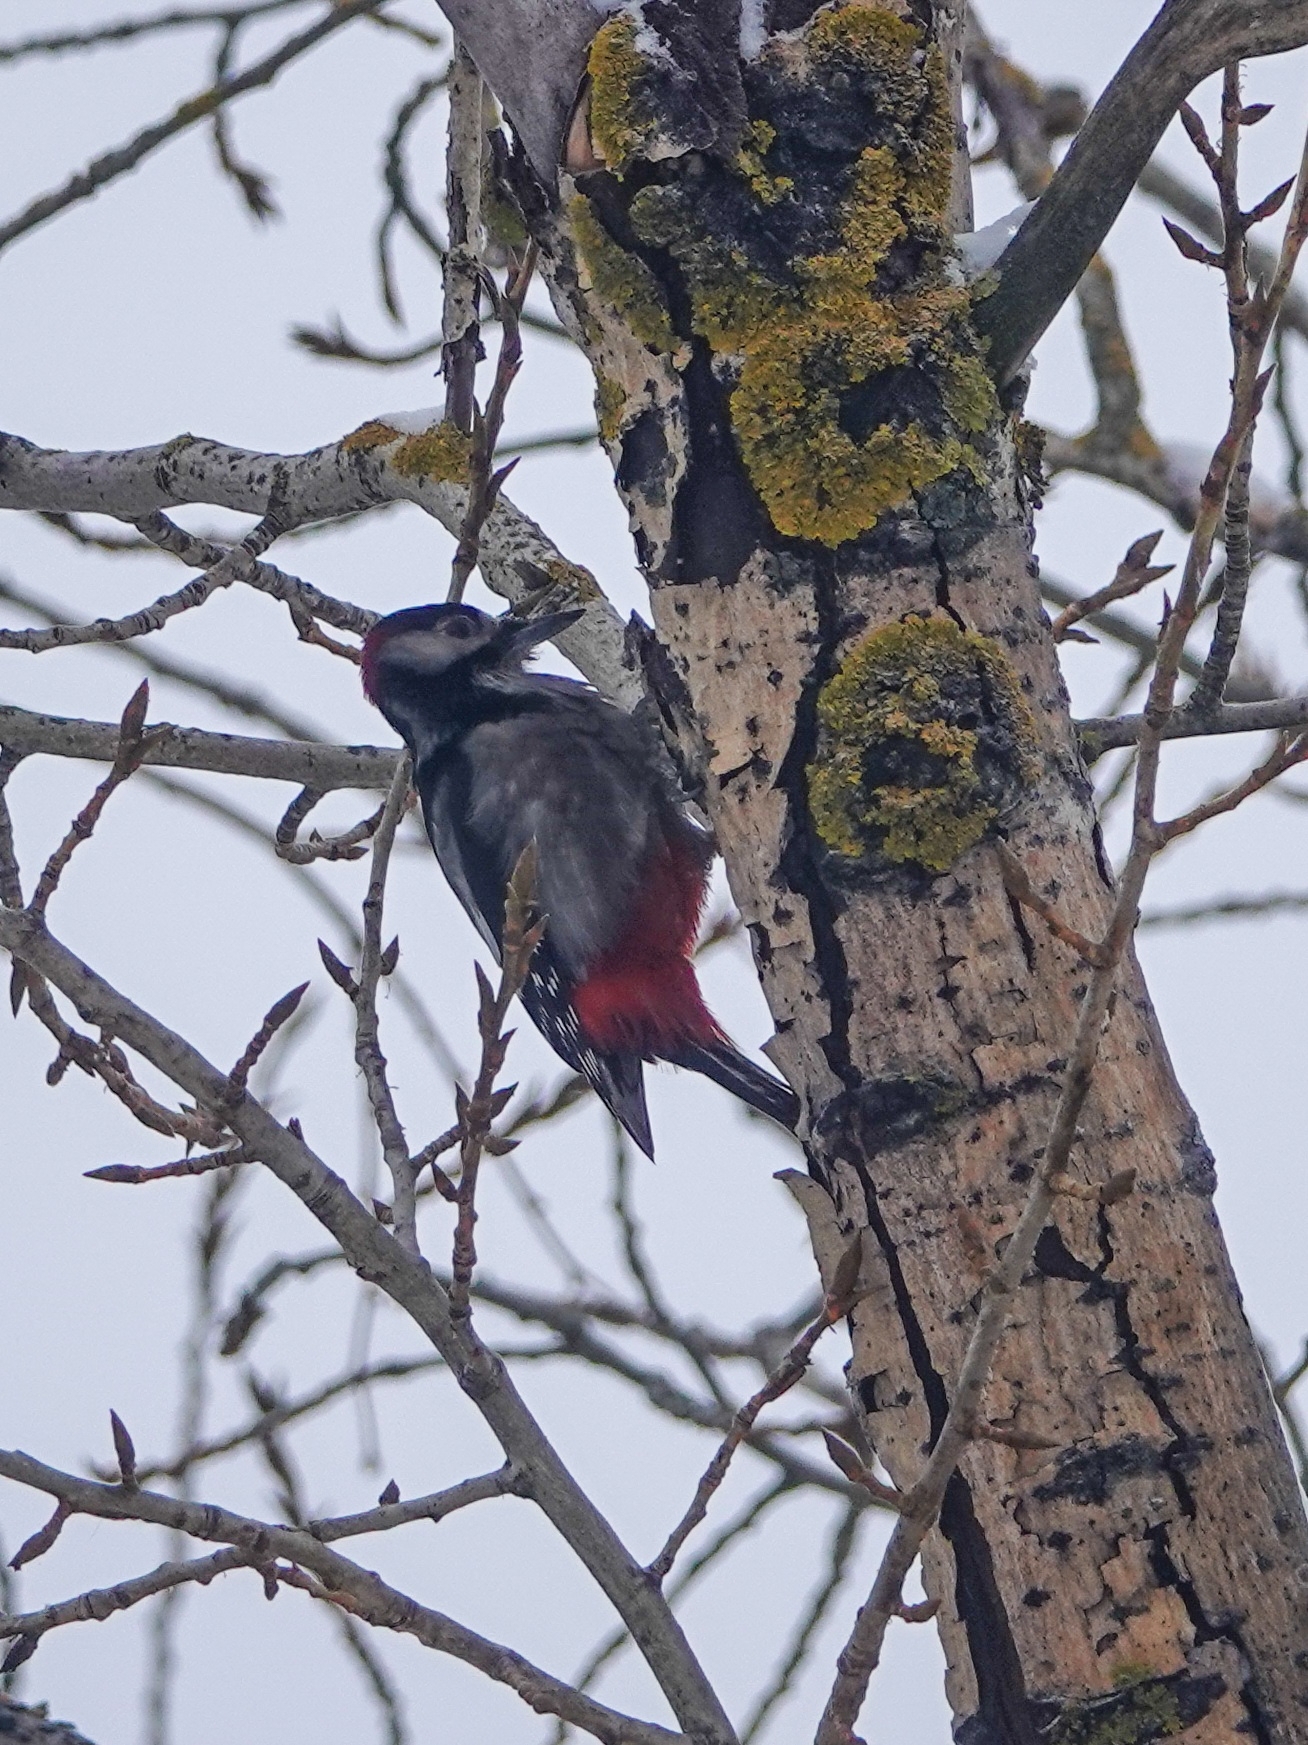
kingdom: Animalia
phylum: Chordata
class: Aves
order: Piciformes
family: Picidae
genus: Dendrocopos
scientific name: Dendrocopos major
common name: Great spotted woodpecker
